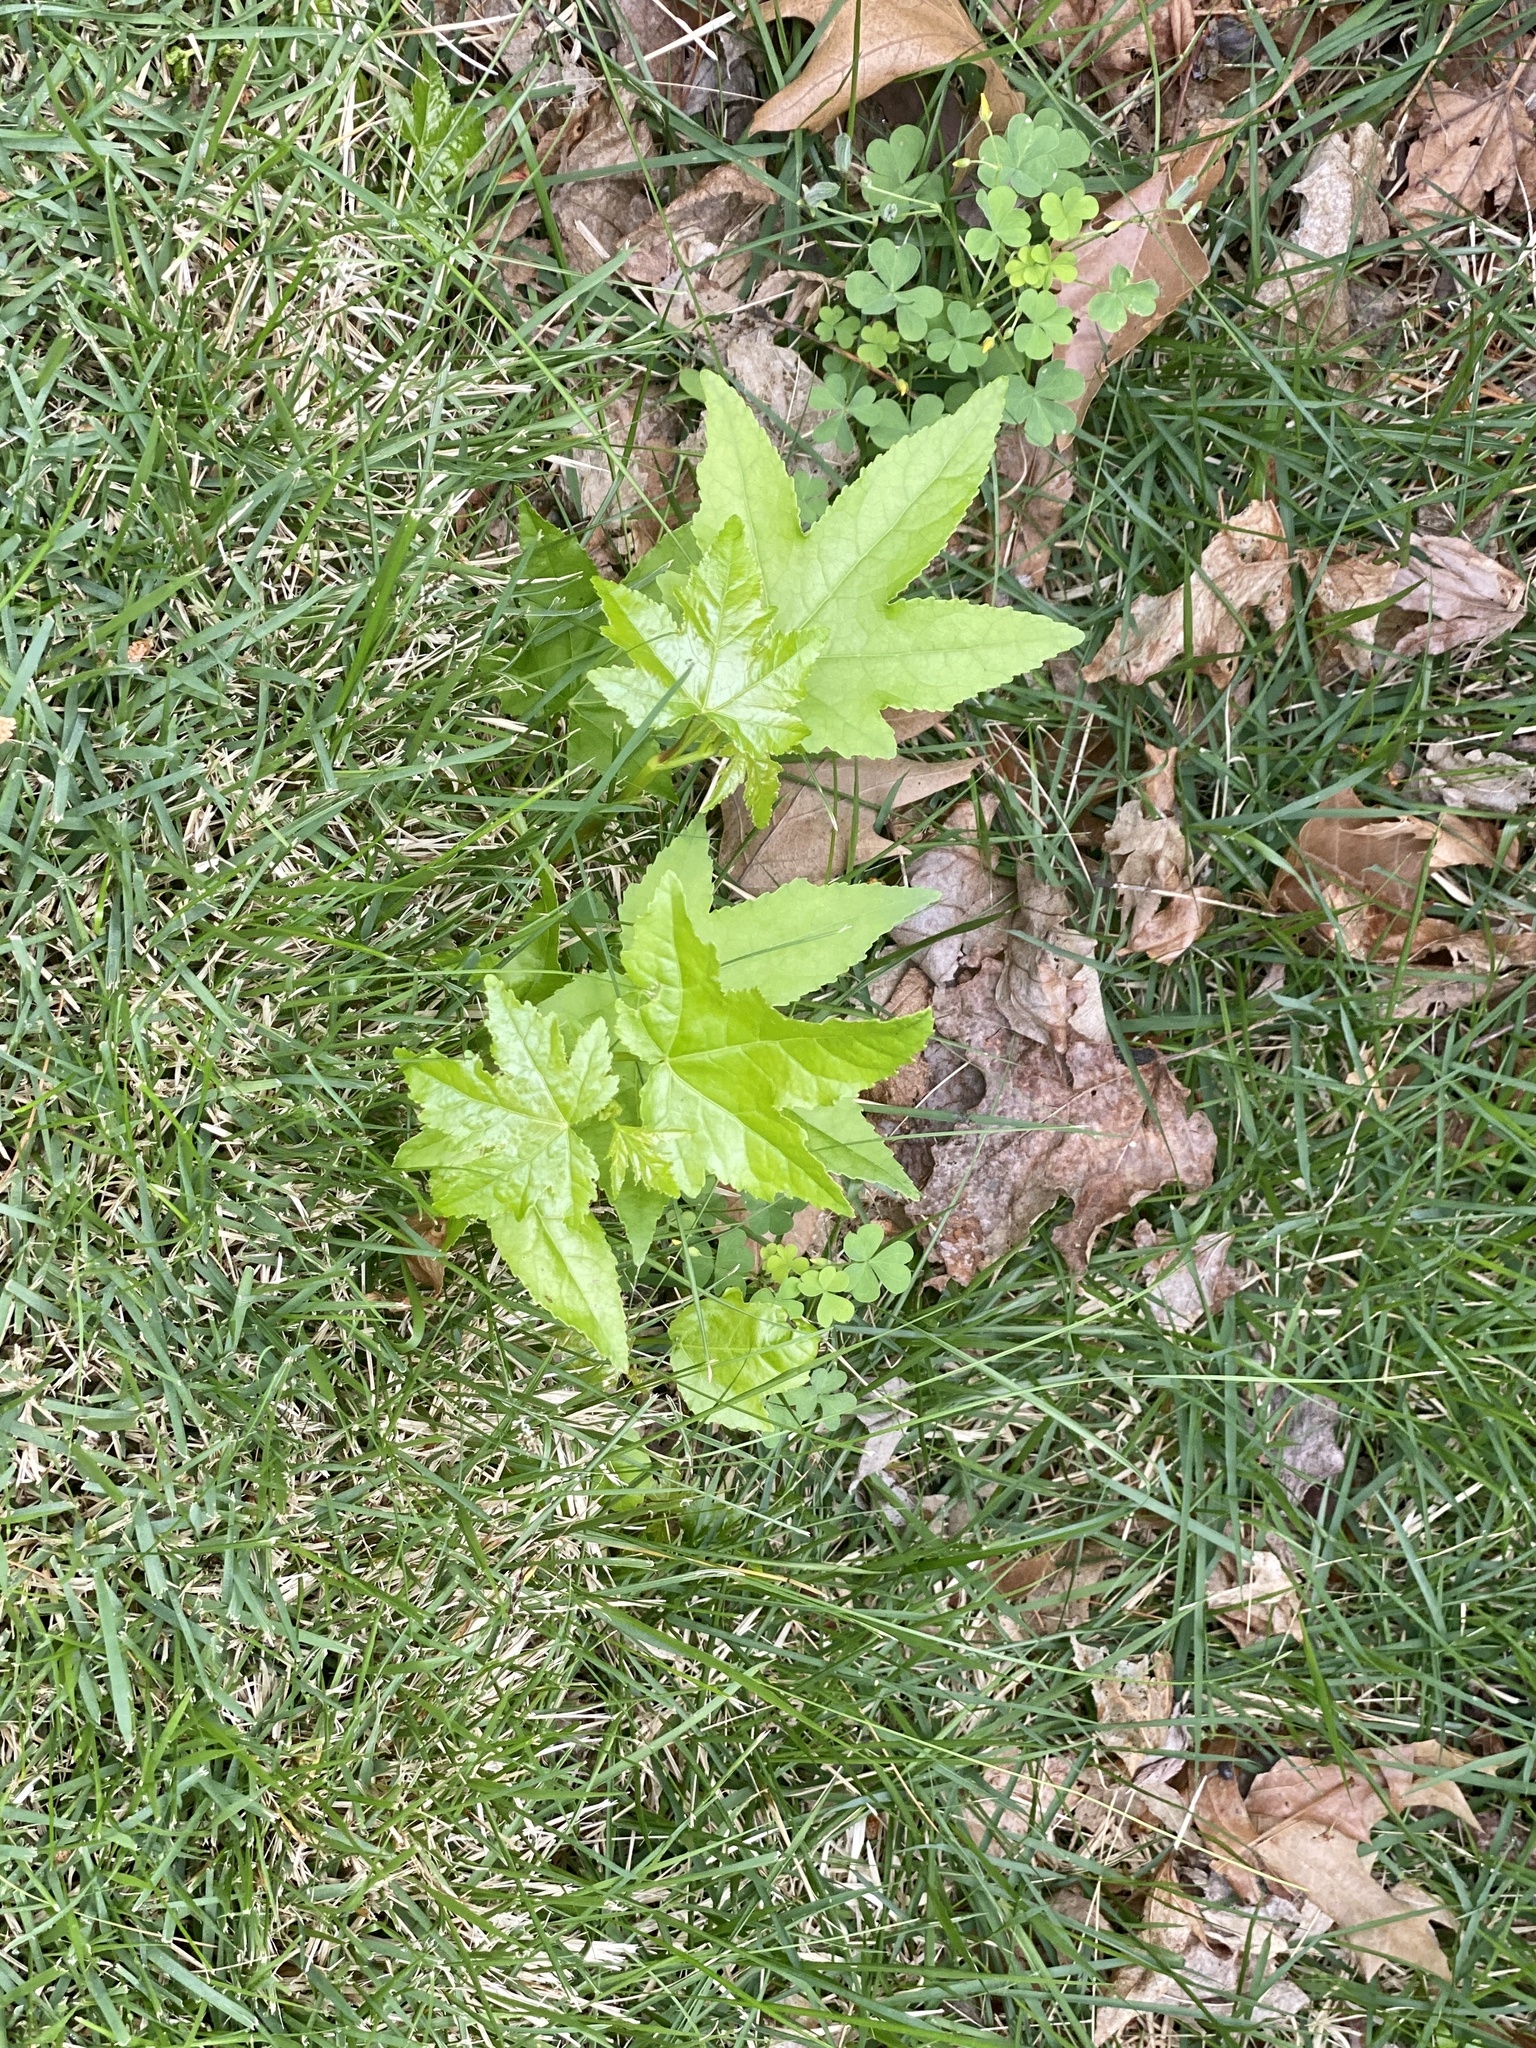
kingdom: Plantae
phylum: Tracheophyta
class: Magnoliopsida
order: Saxifragales
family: Altingiaceae
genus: Liquidambar
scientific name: Liquidambar styraciflua
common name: Sweet gum
